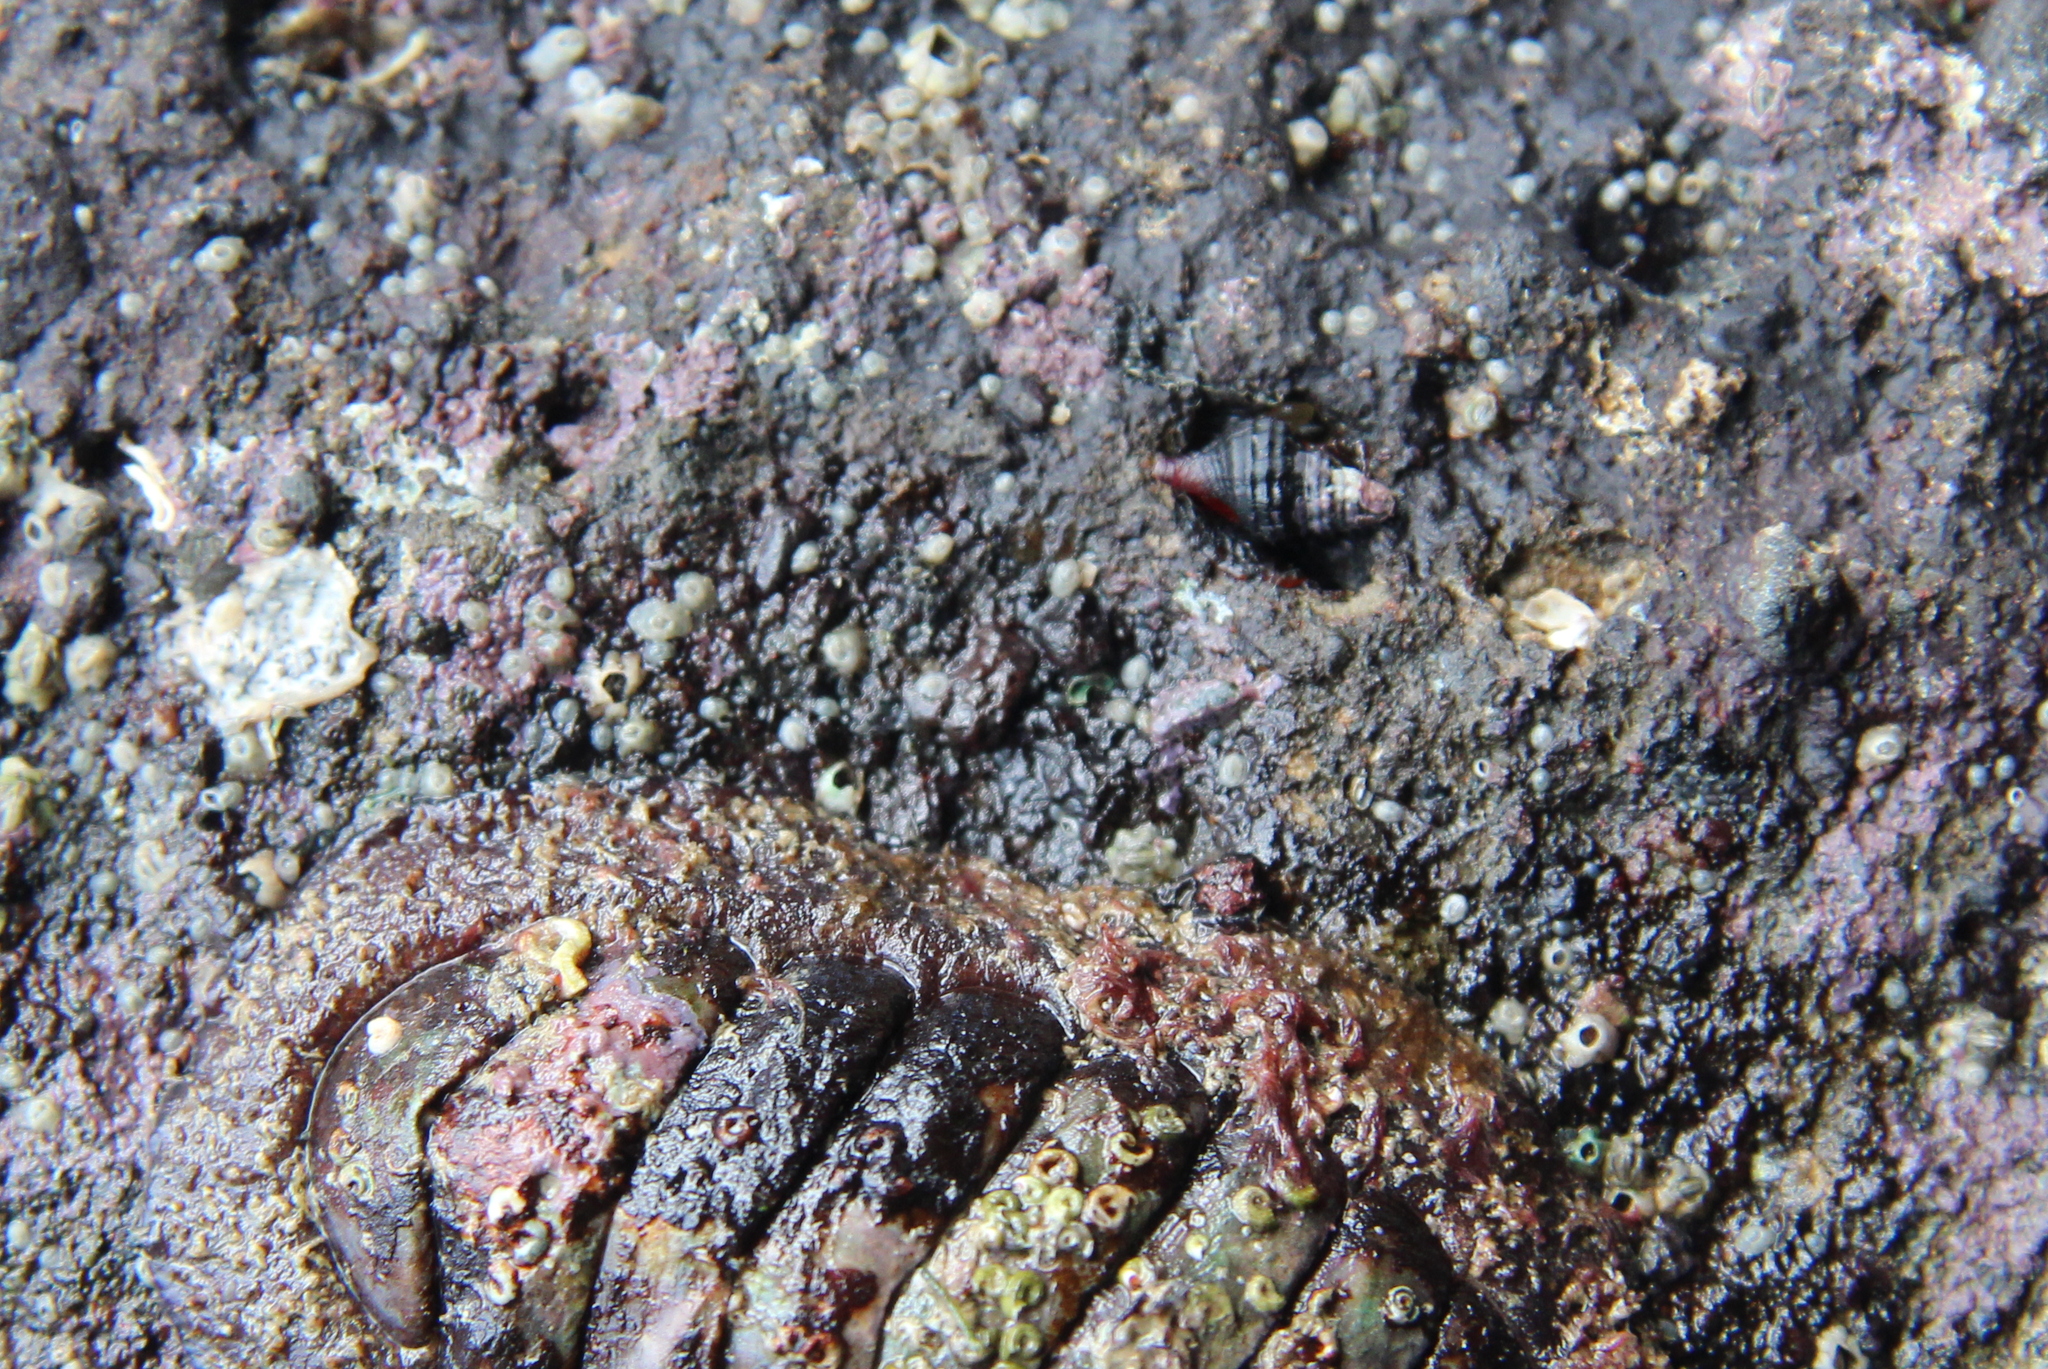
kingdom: Animalia
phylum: Mollusca
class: Gastropoda
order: Neogastropoda
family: Fasciolariidae
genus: Taron
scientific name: Taron dubius
